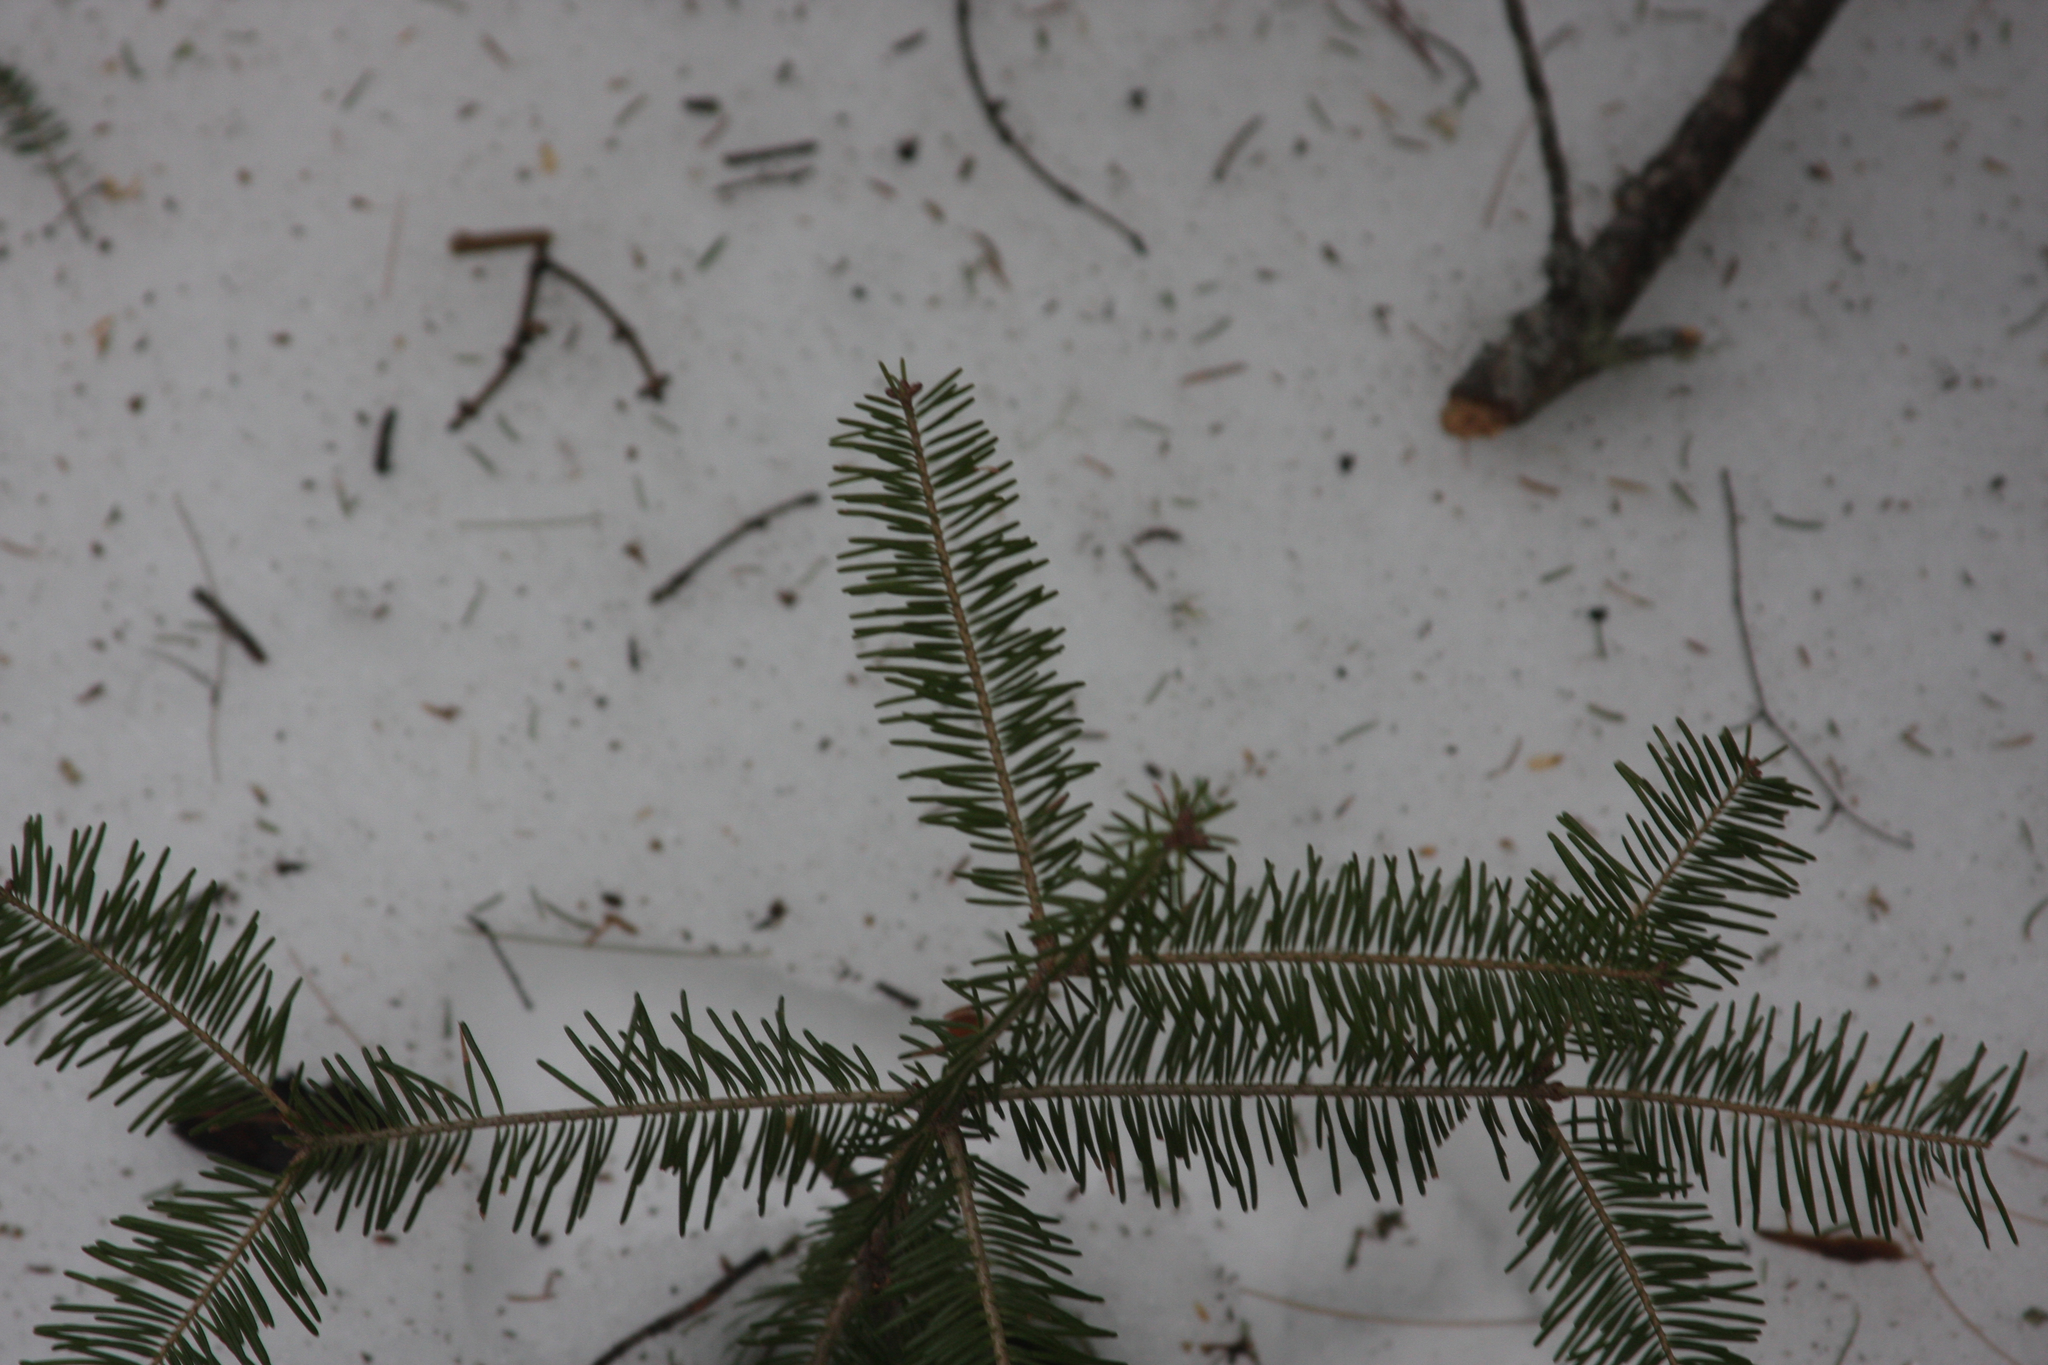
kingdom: Plantae
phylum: Tracheophyta
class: Pinopsida
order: Pinales
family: Pinaceae
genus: Abies
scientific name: Abies balsamea
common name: Balsam fir
